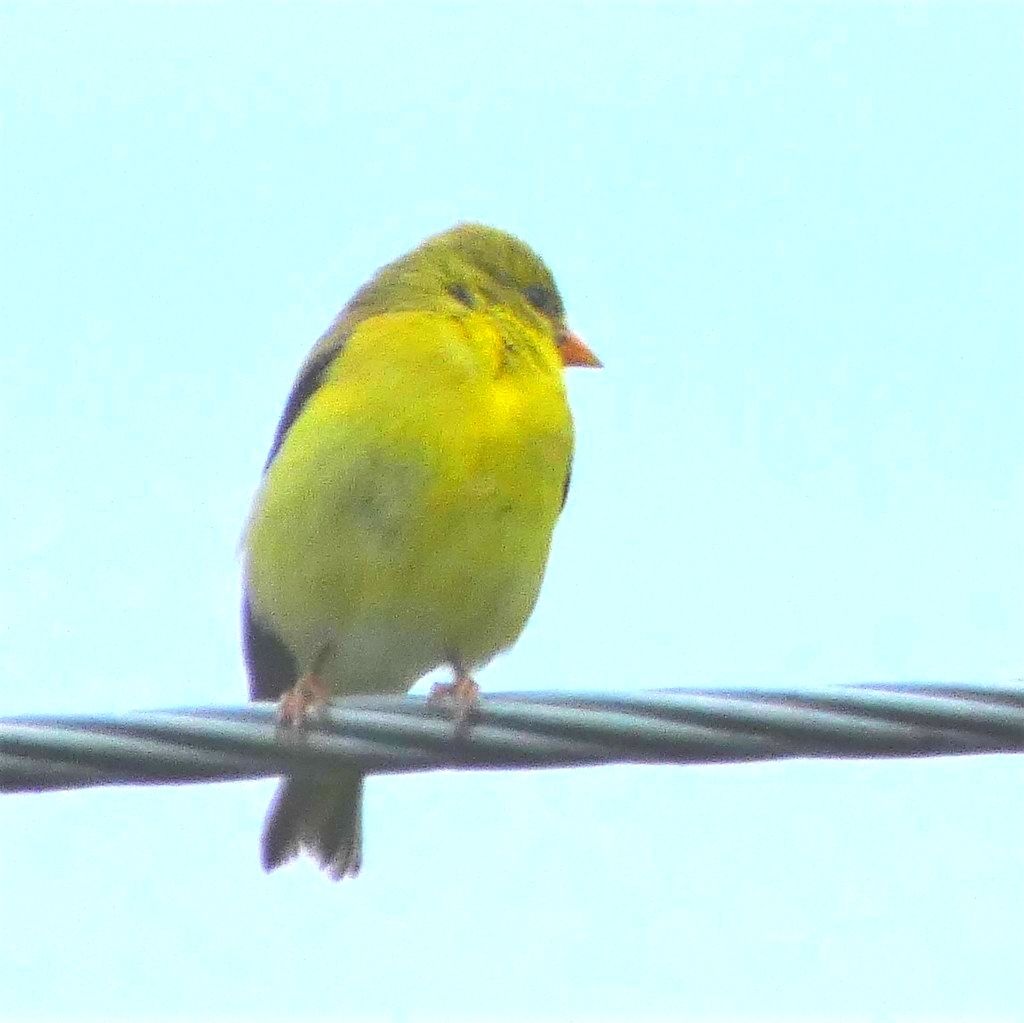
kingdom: Animalia
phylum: Chordata
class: Aves
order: Passeriformes
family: Fringillidae
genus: Spinus
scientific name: Spinus tristis
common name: American goldfinch
